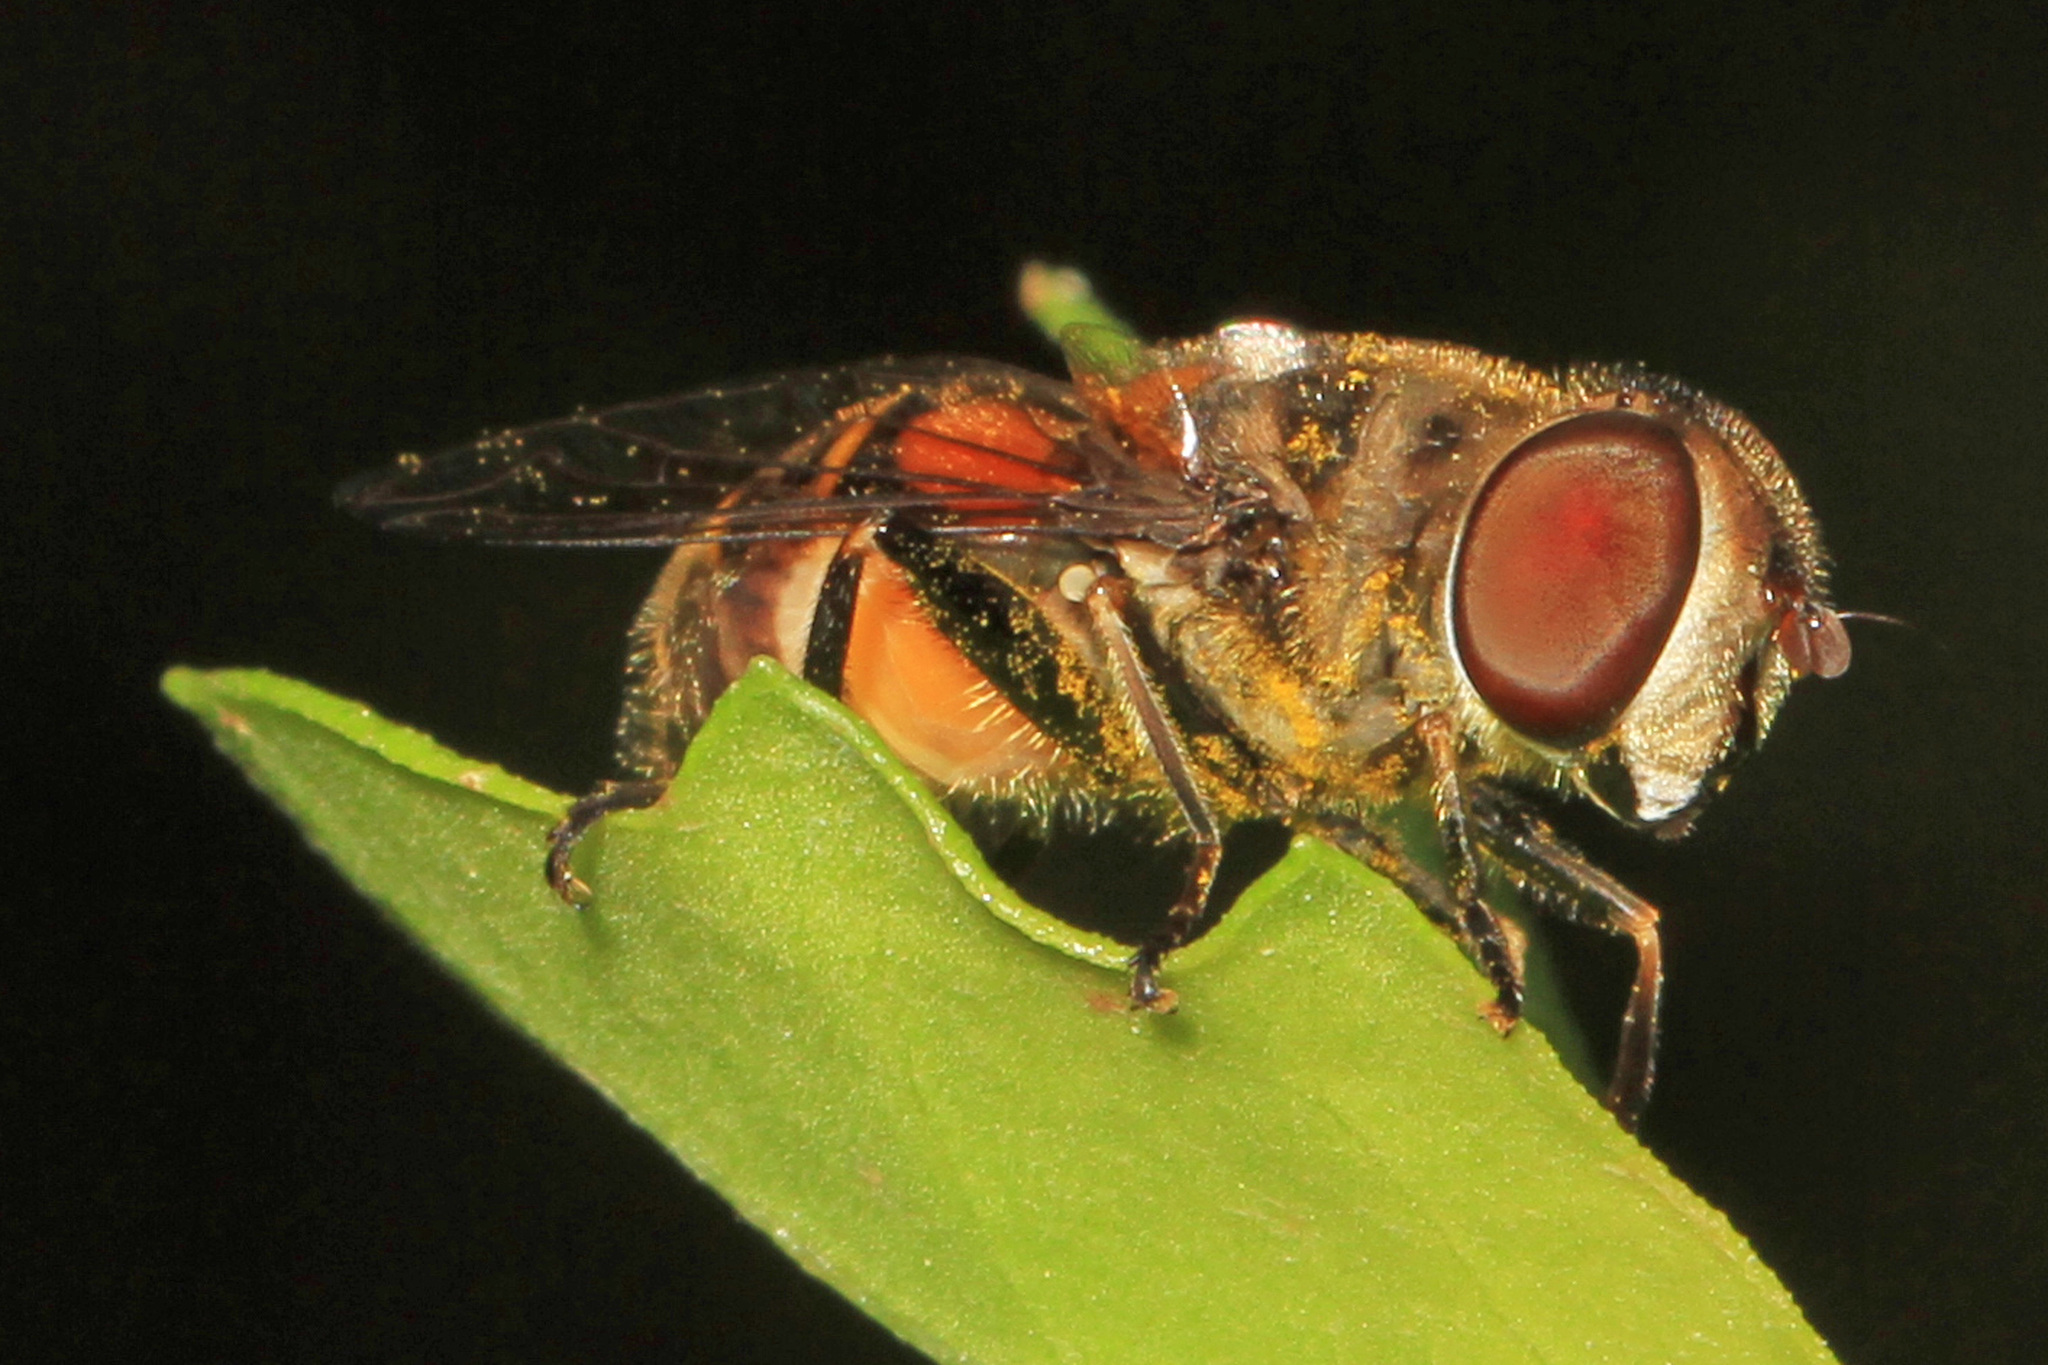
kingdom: Animalia
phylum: Arthropoda
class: Insecta
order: Diptera
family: Syrphidae
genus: Palpada
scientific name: Palpada agrorum
